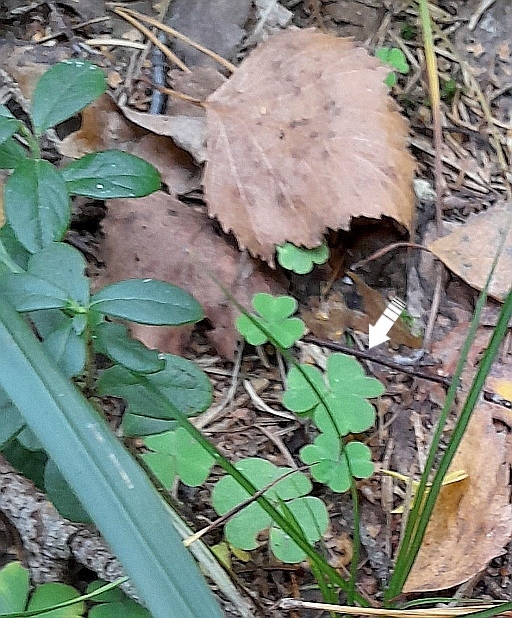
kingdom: Plantae
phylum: Tracheophyta
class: Magnoliopsida
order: Oxalidales
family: Oxalidaceae
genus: Oxalis
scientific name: Oxalis acetosella
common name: Wood-sorrel
